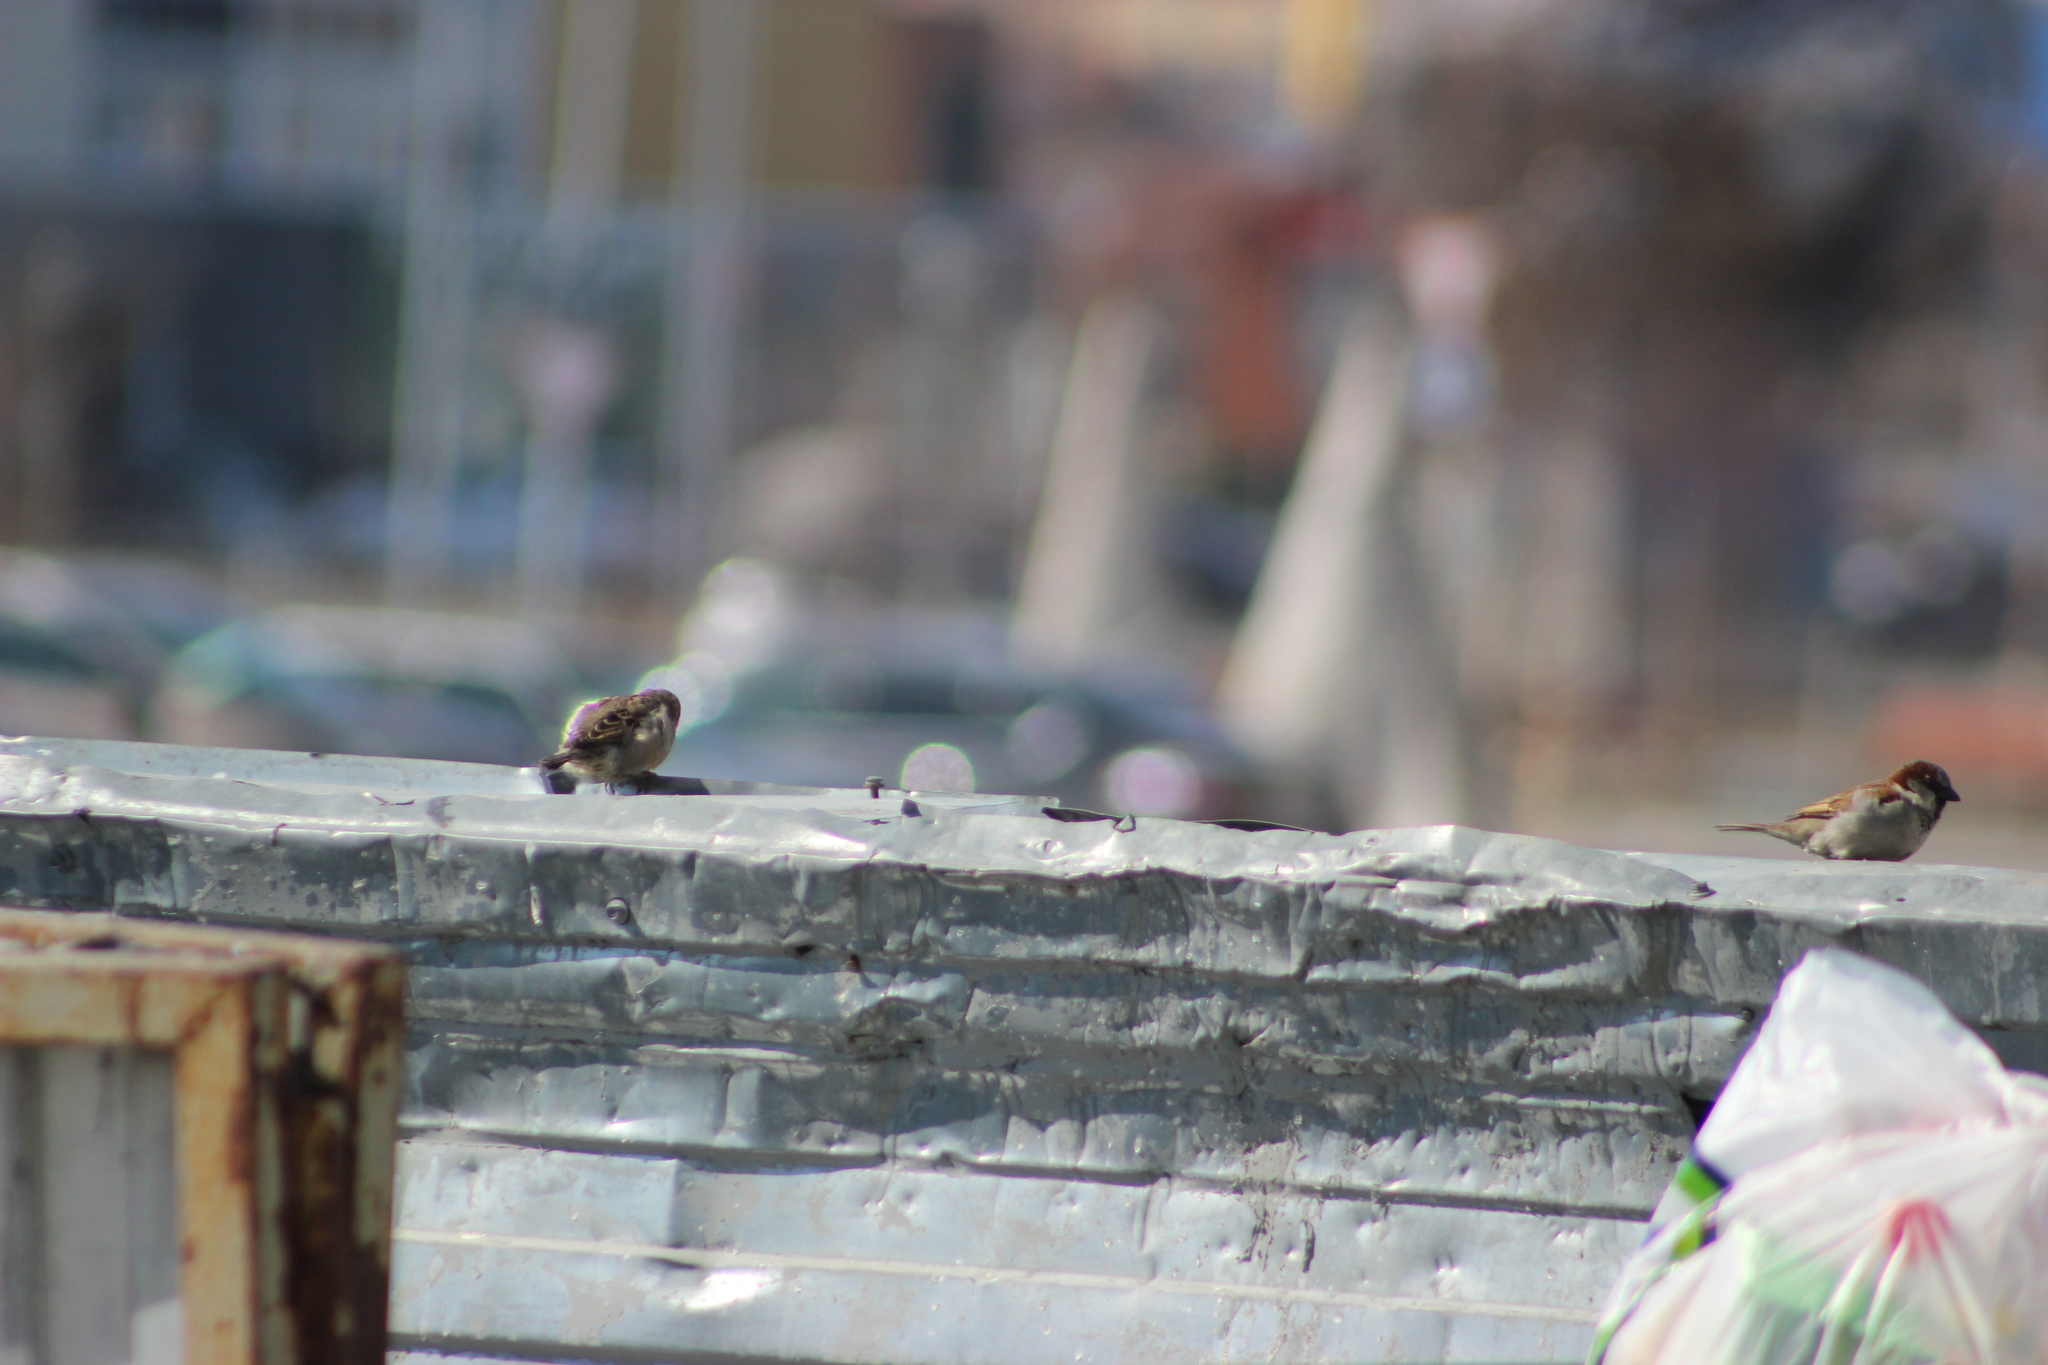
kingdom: Animalia
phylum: Chordata
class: Aves
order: Passeriformes
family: Passeridae
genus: Passer
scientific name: Passer domesticus
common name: House sparrow
